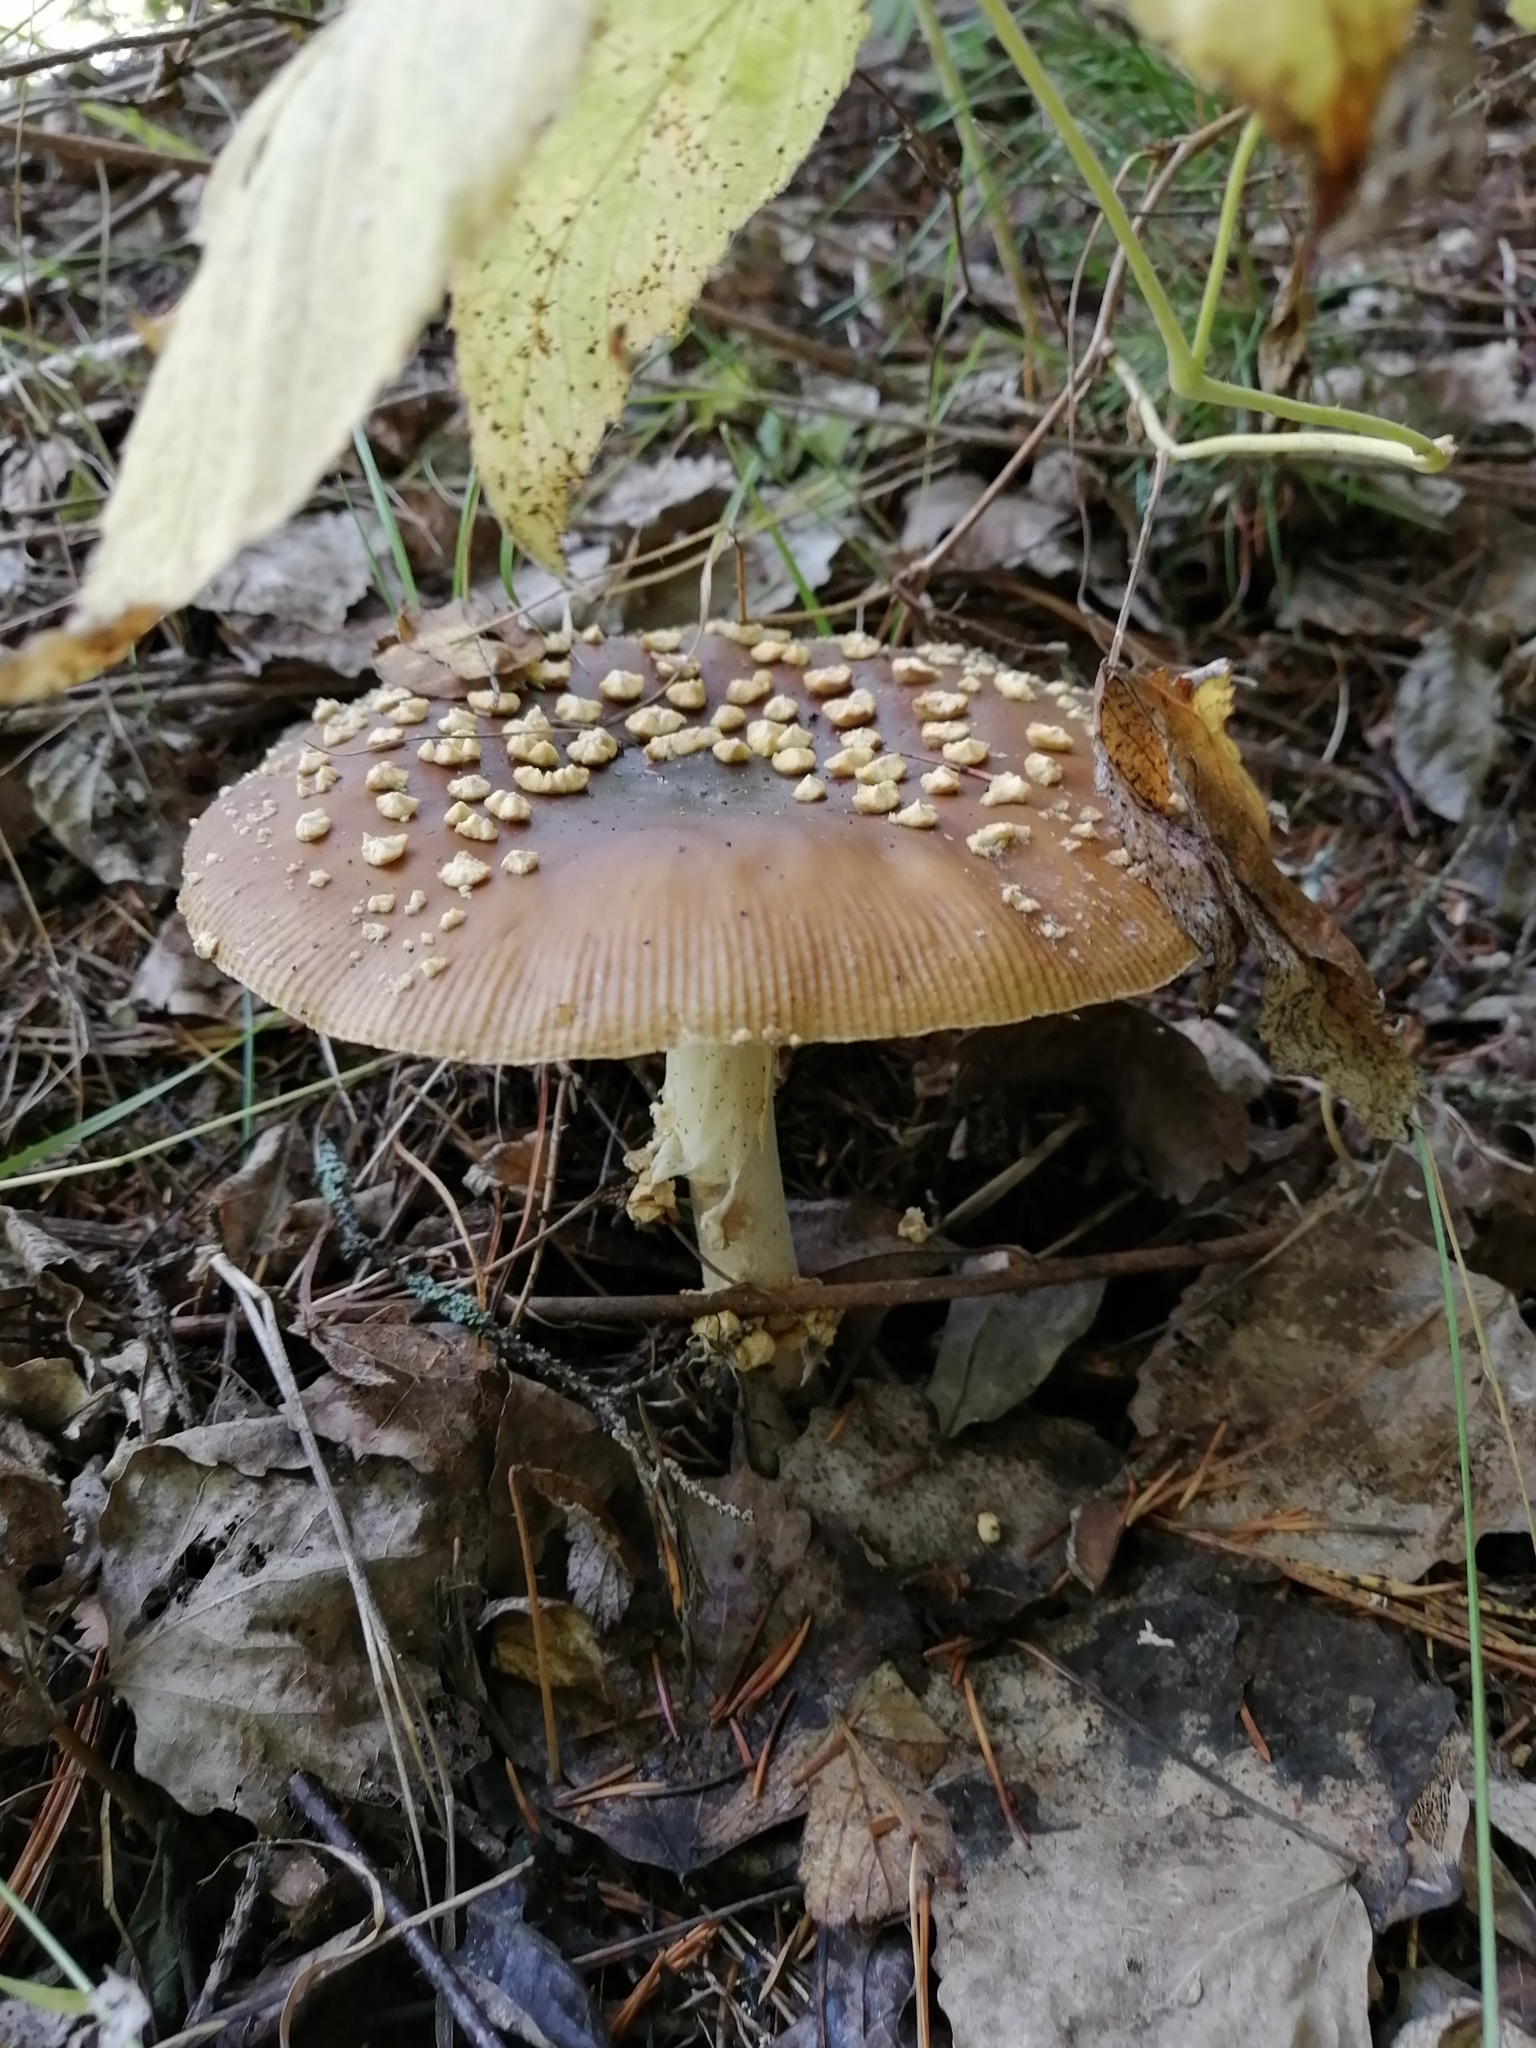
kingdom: Fungi
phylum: Basidiomycota
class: Agaricomycetes
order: Agaricales
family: Amanitaceae
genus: Amanita
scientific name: Amanita regalis
